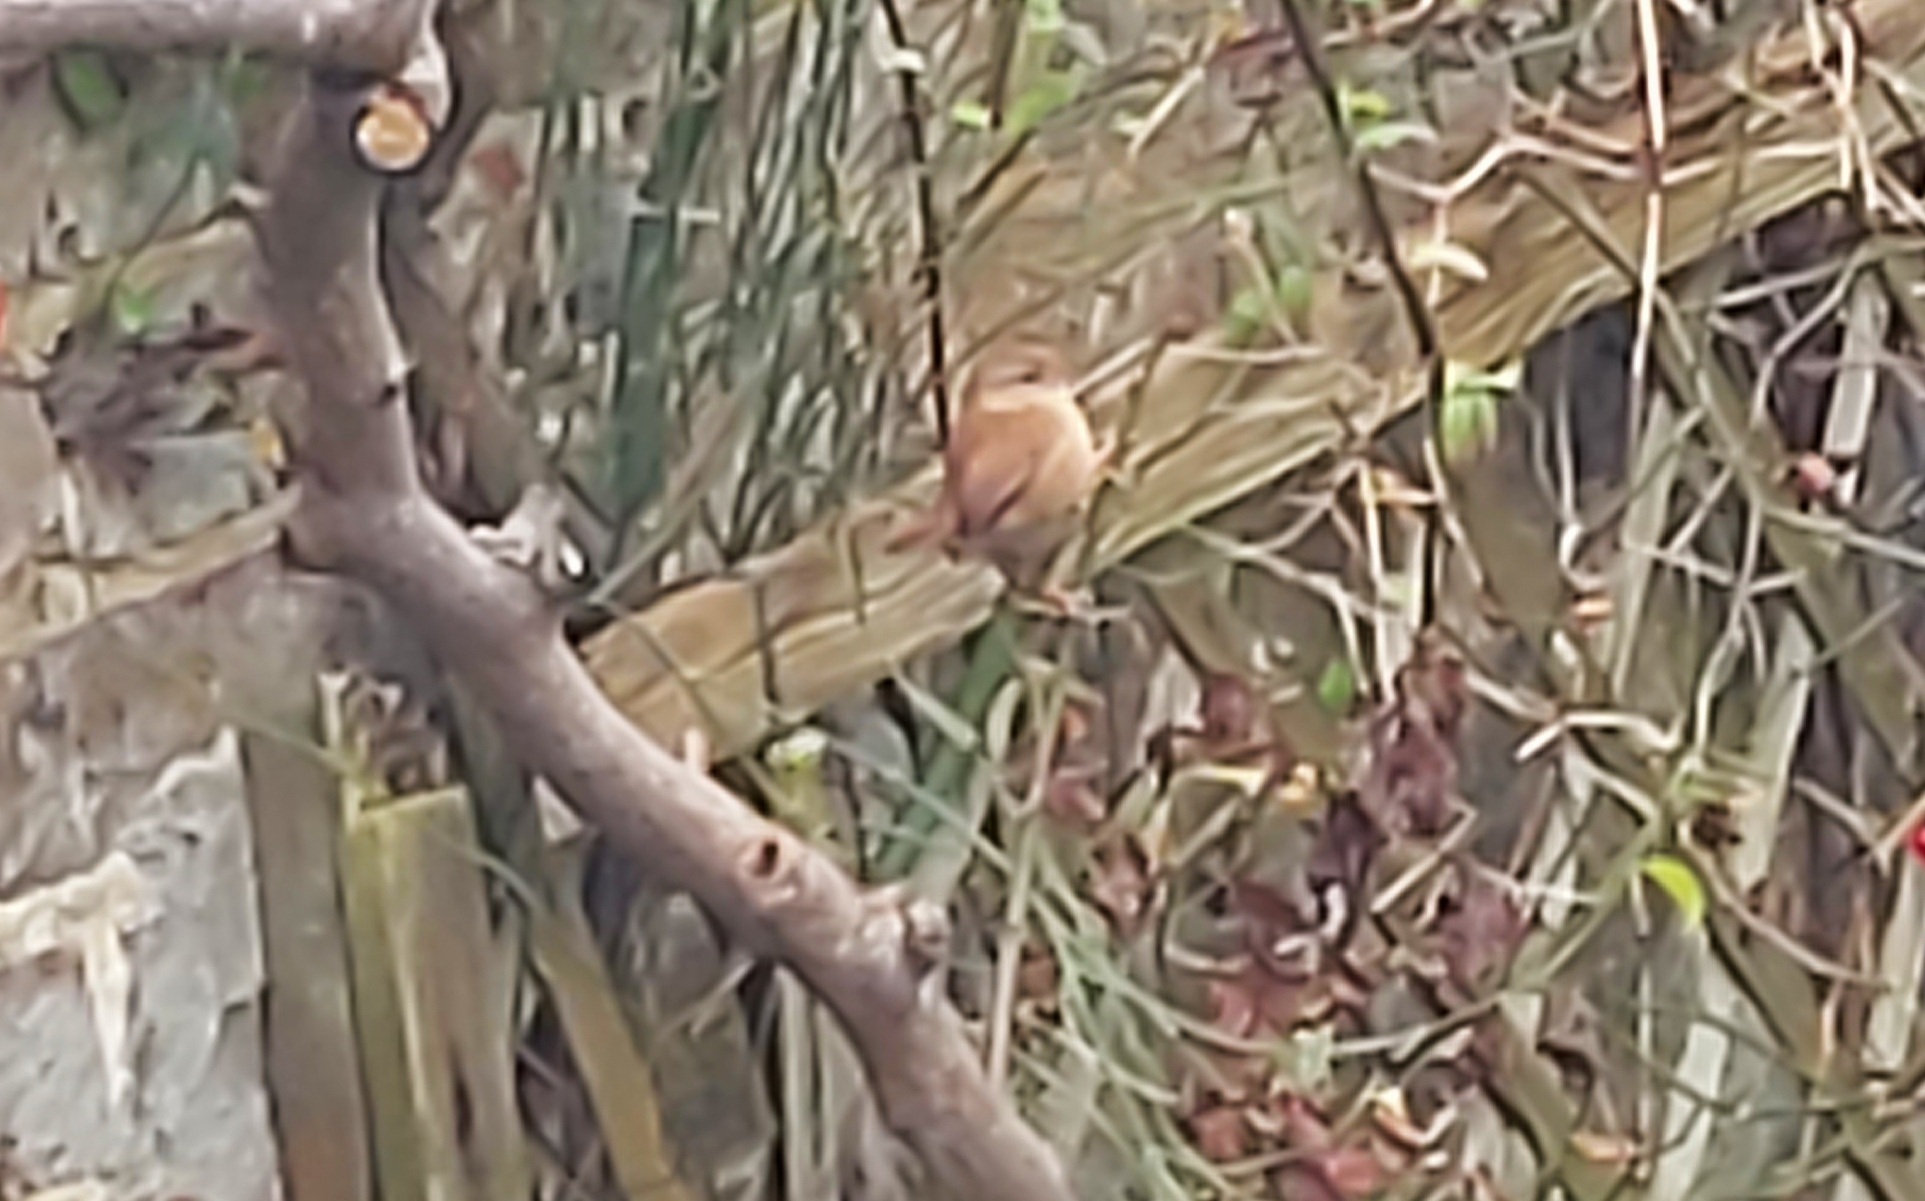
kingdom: Animalia
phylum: Chordata
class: Aves
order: Passeriformes
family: Troglodytidae
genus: Troglodytes
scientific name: Troglodytes troglodytes
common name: Eurasian wren
